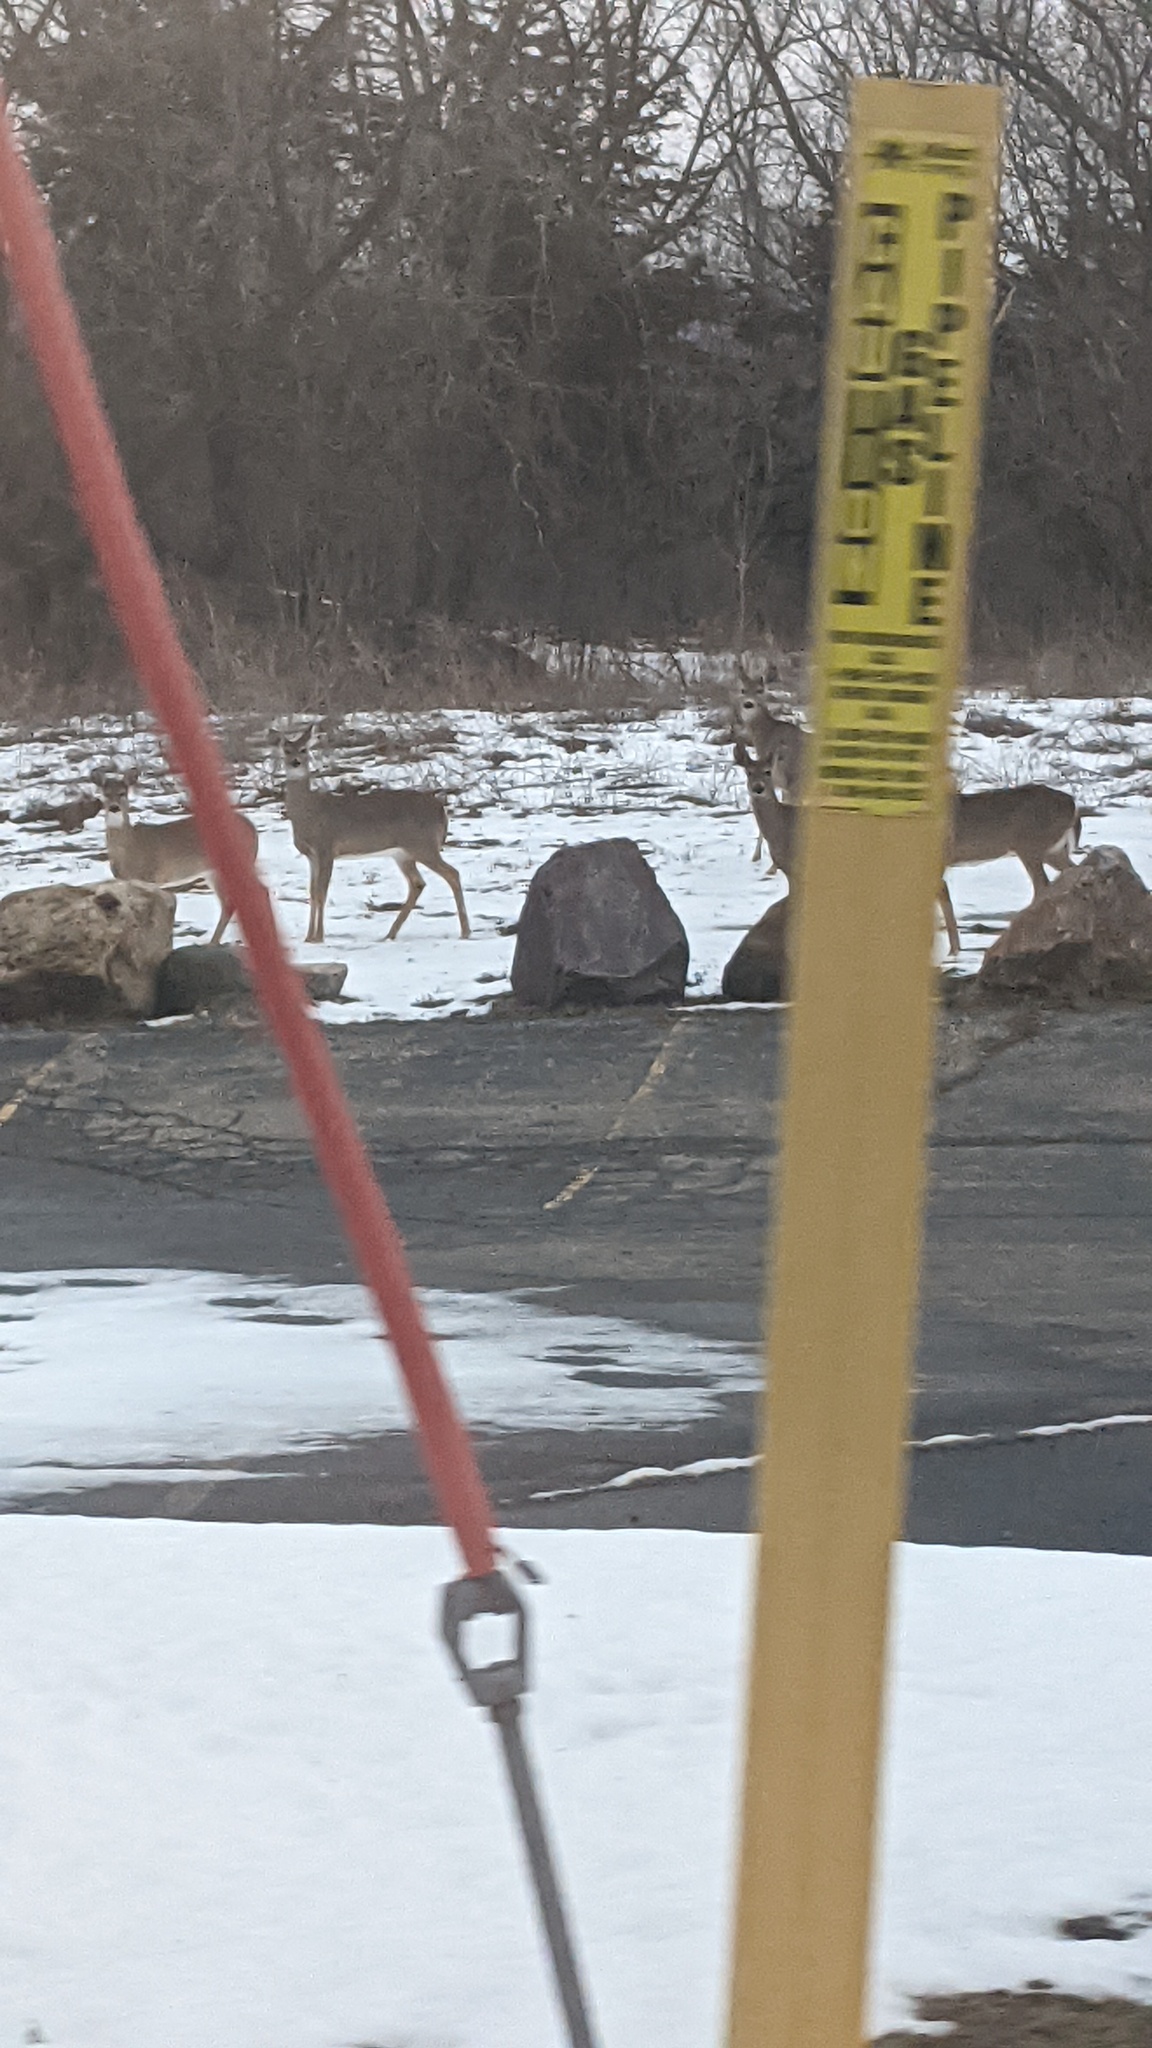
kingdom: Animalia
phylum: Chordata
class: Mammalia
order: Artiodactyla
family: Cervidae
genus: Odocoileus
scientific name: Odocoileus virginianus
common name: White-tailed deer
